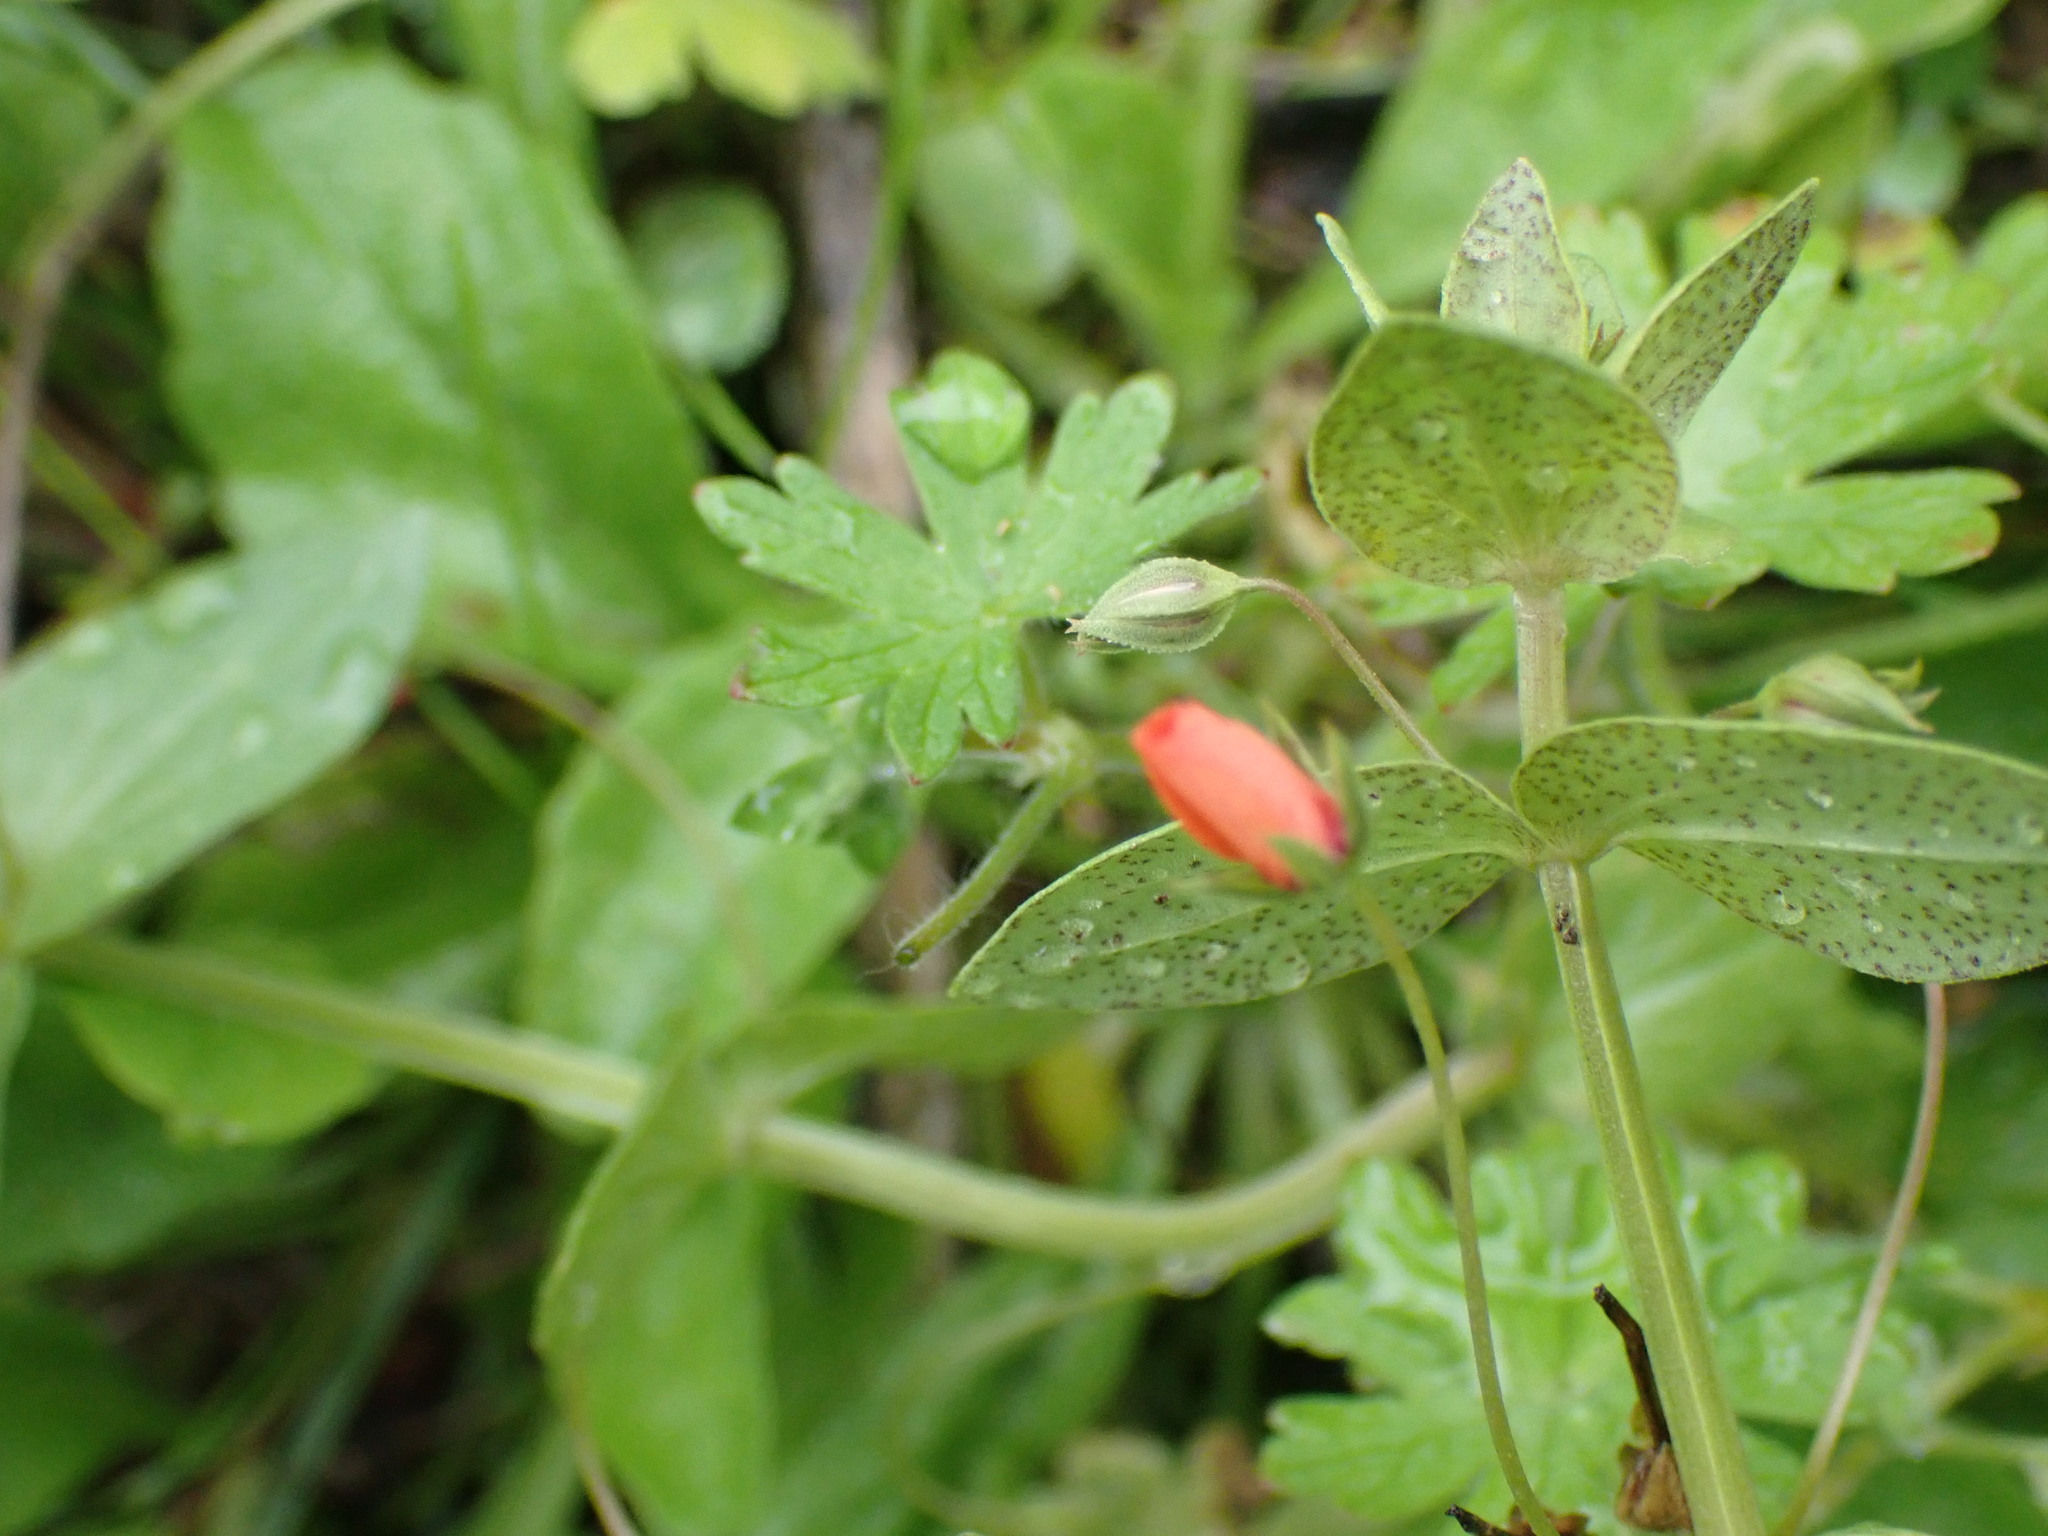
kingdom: Plantae
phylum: Tracheophyta
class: Magnoliopsida
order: Ericales
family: Primulaceae
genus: Lysimachia
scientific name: Lysimachia arvensis
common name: Scarlet pimpernel
